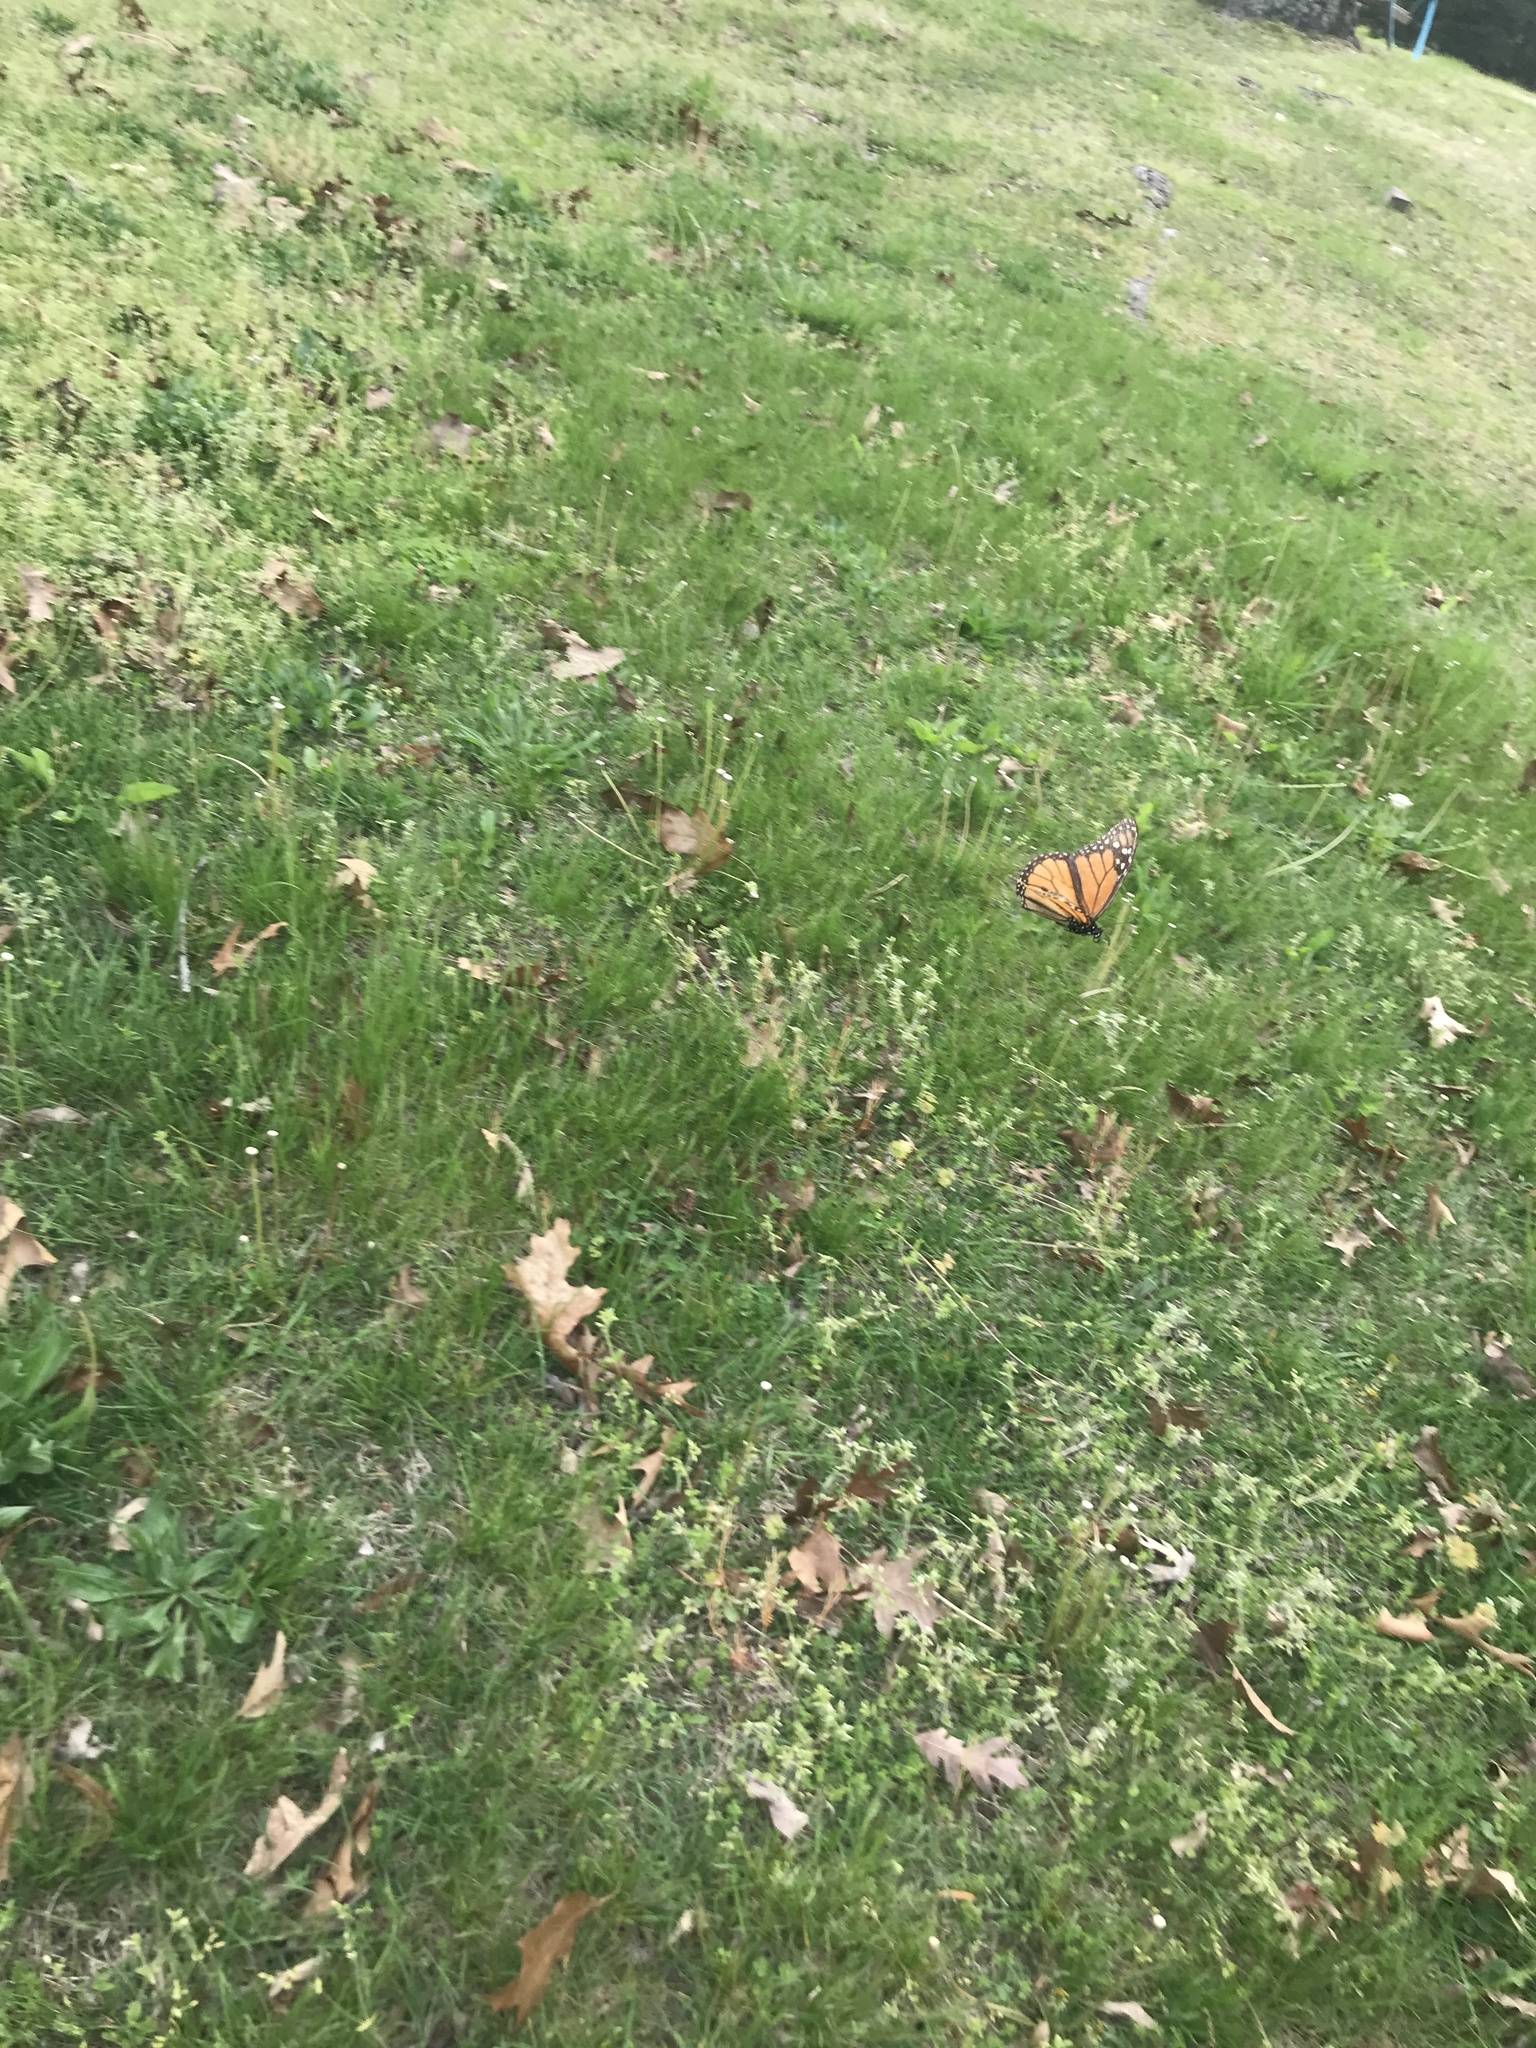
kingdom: Animalia
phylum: Arthropoda
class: Insecta
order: Lepidoptera
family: Nymphalidae
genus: Danaus
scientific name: Danaus plexippus
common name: Monarch
